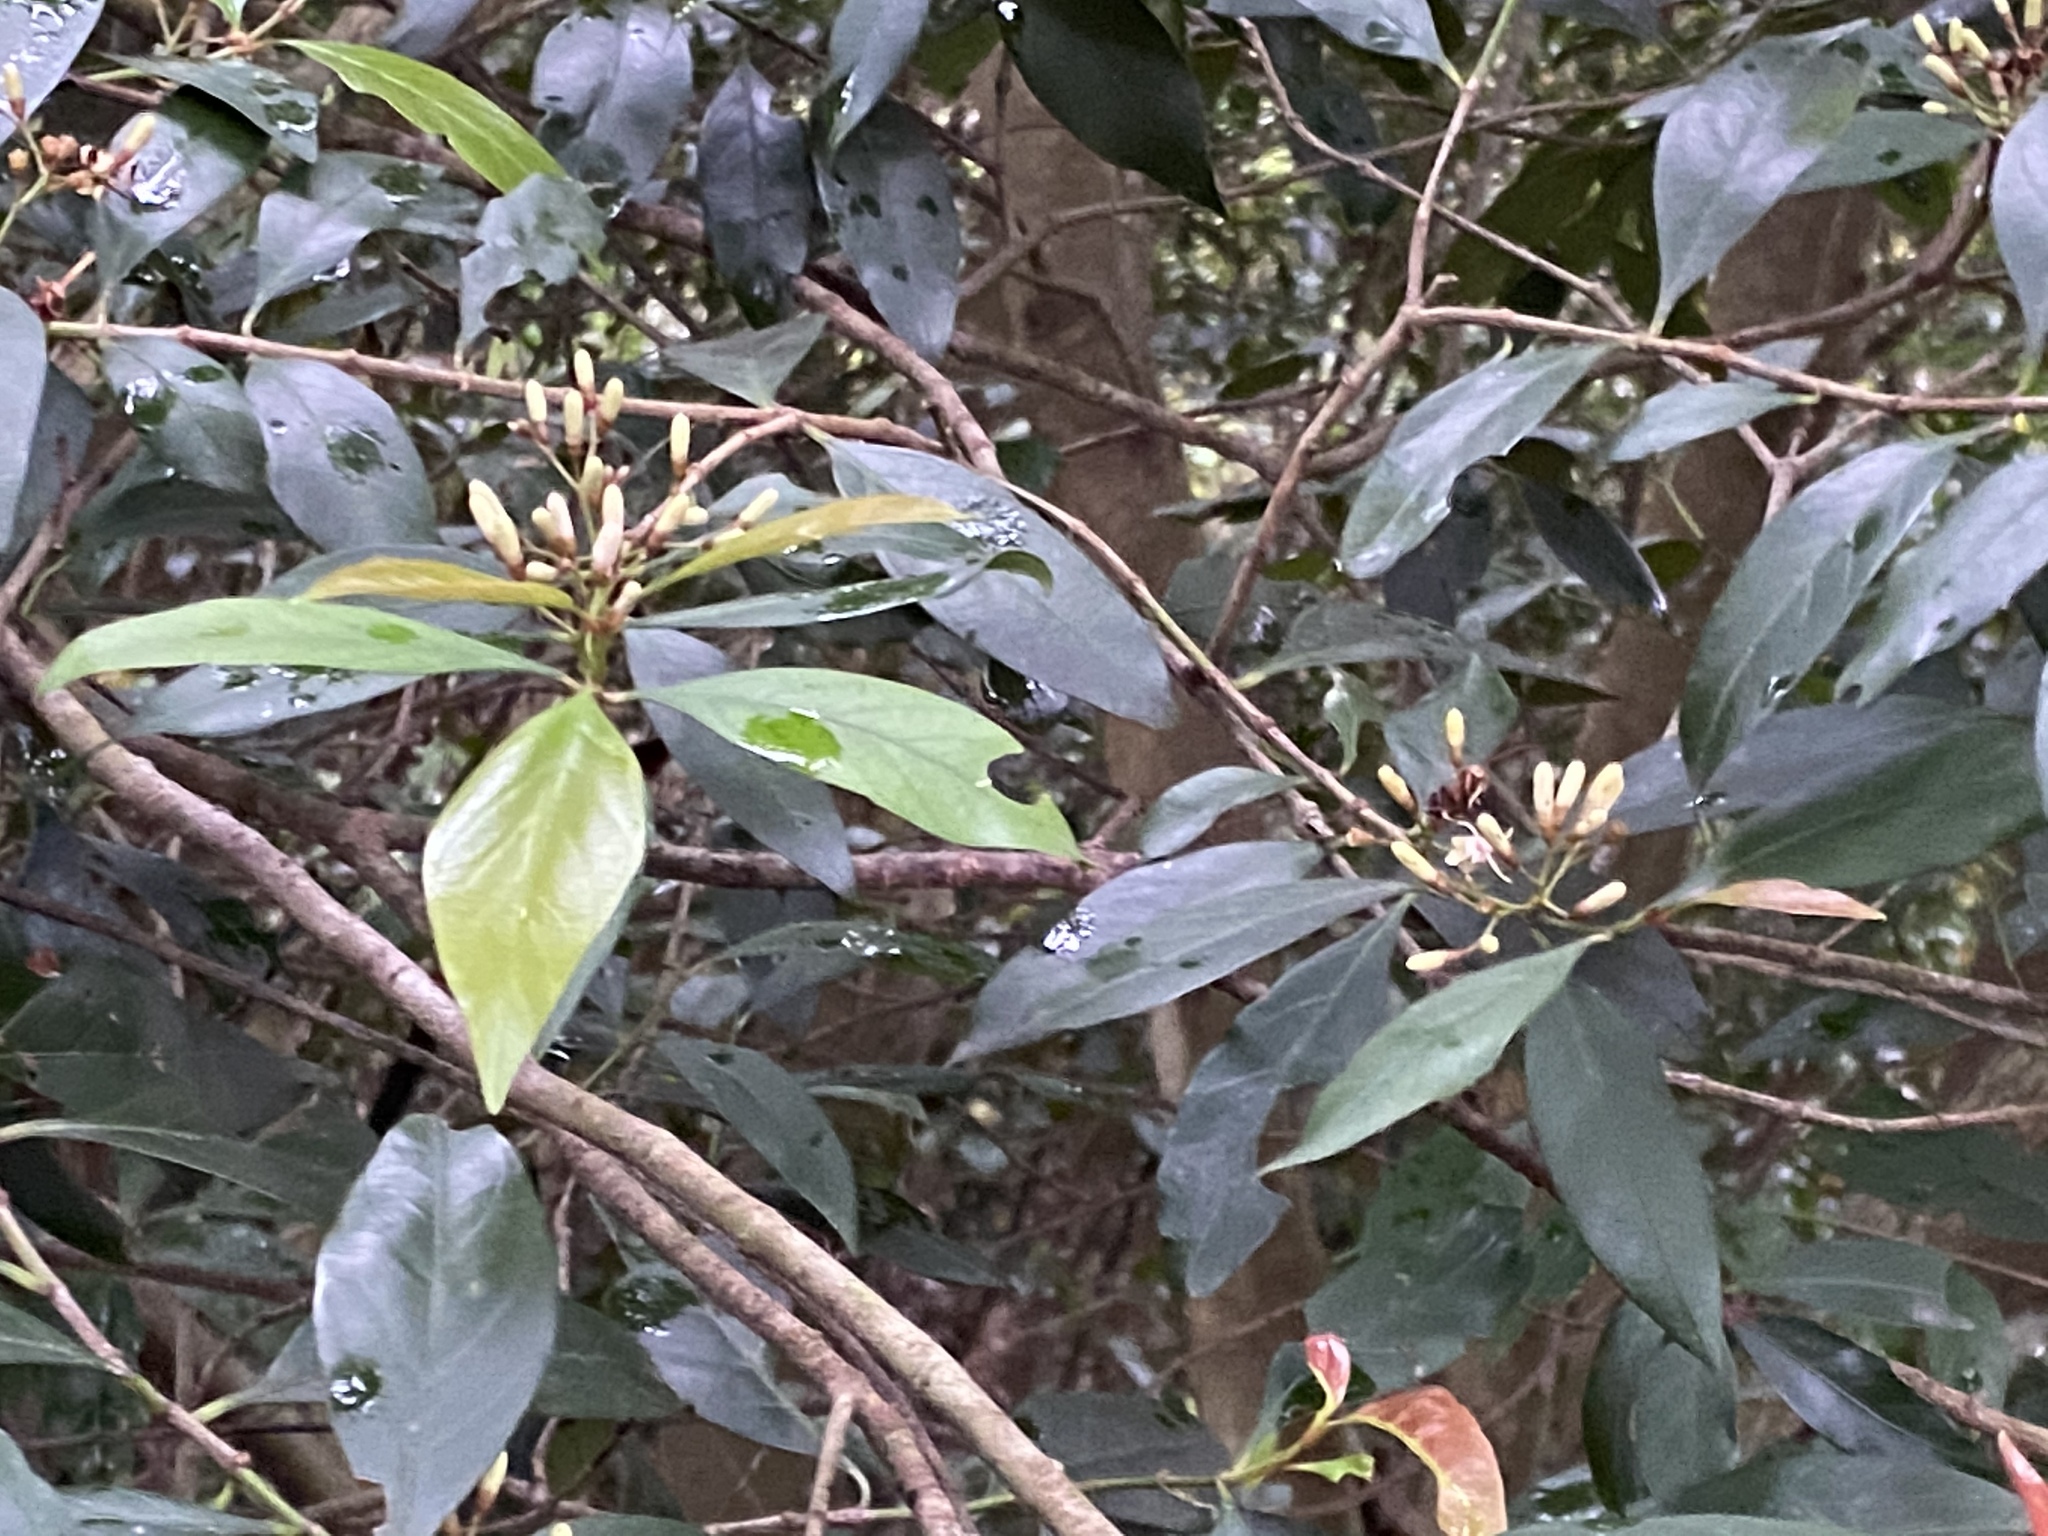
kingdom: Plantae
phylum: Tracheophyta
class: Magnoliopsida
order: Gentianales
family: Rubiaceae
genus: Aidia
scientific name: Aidia cochinchinensis
